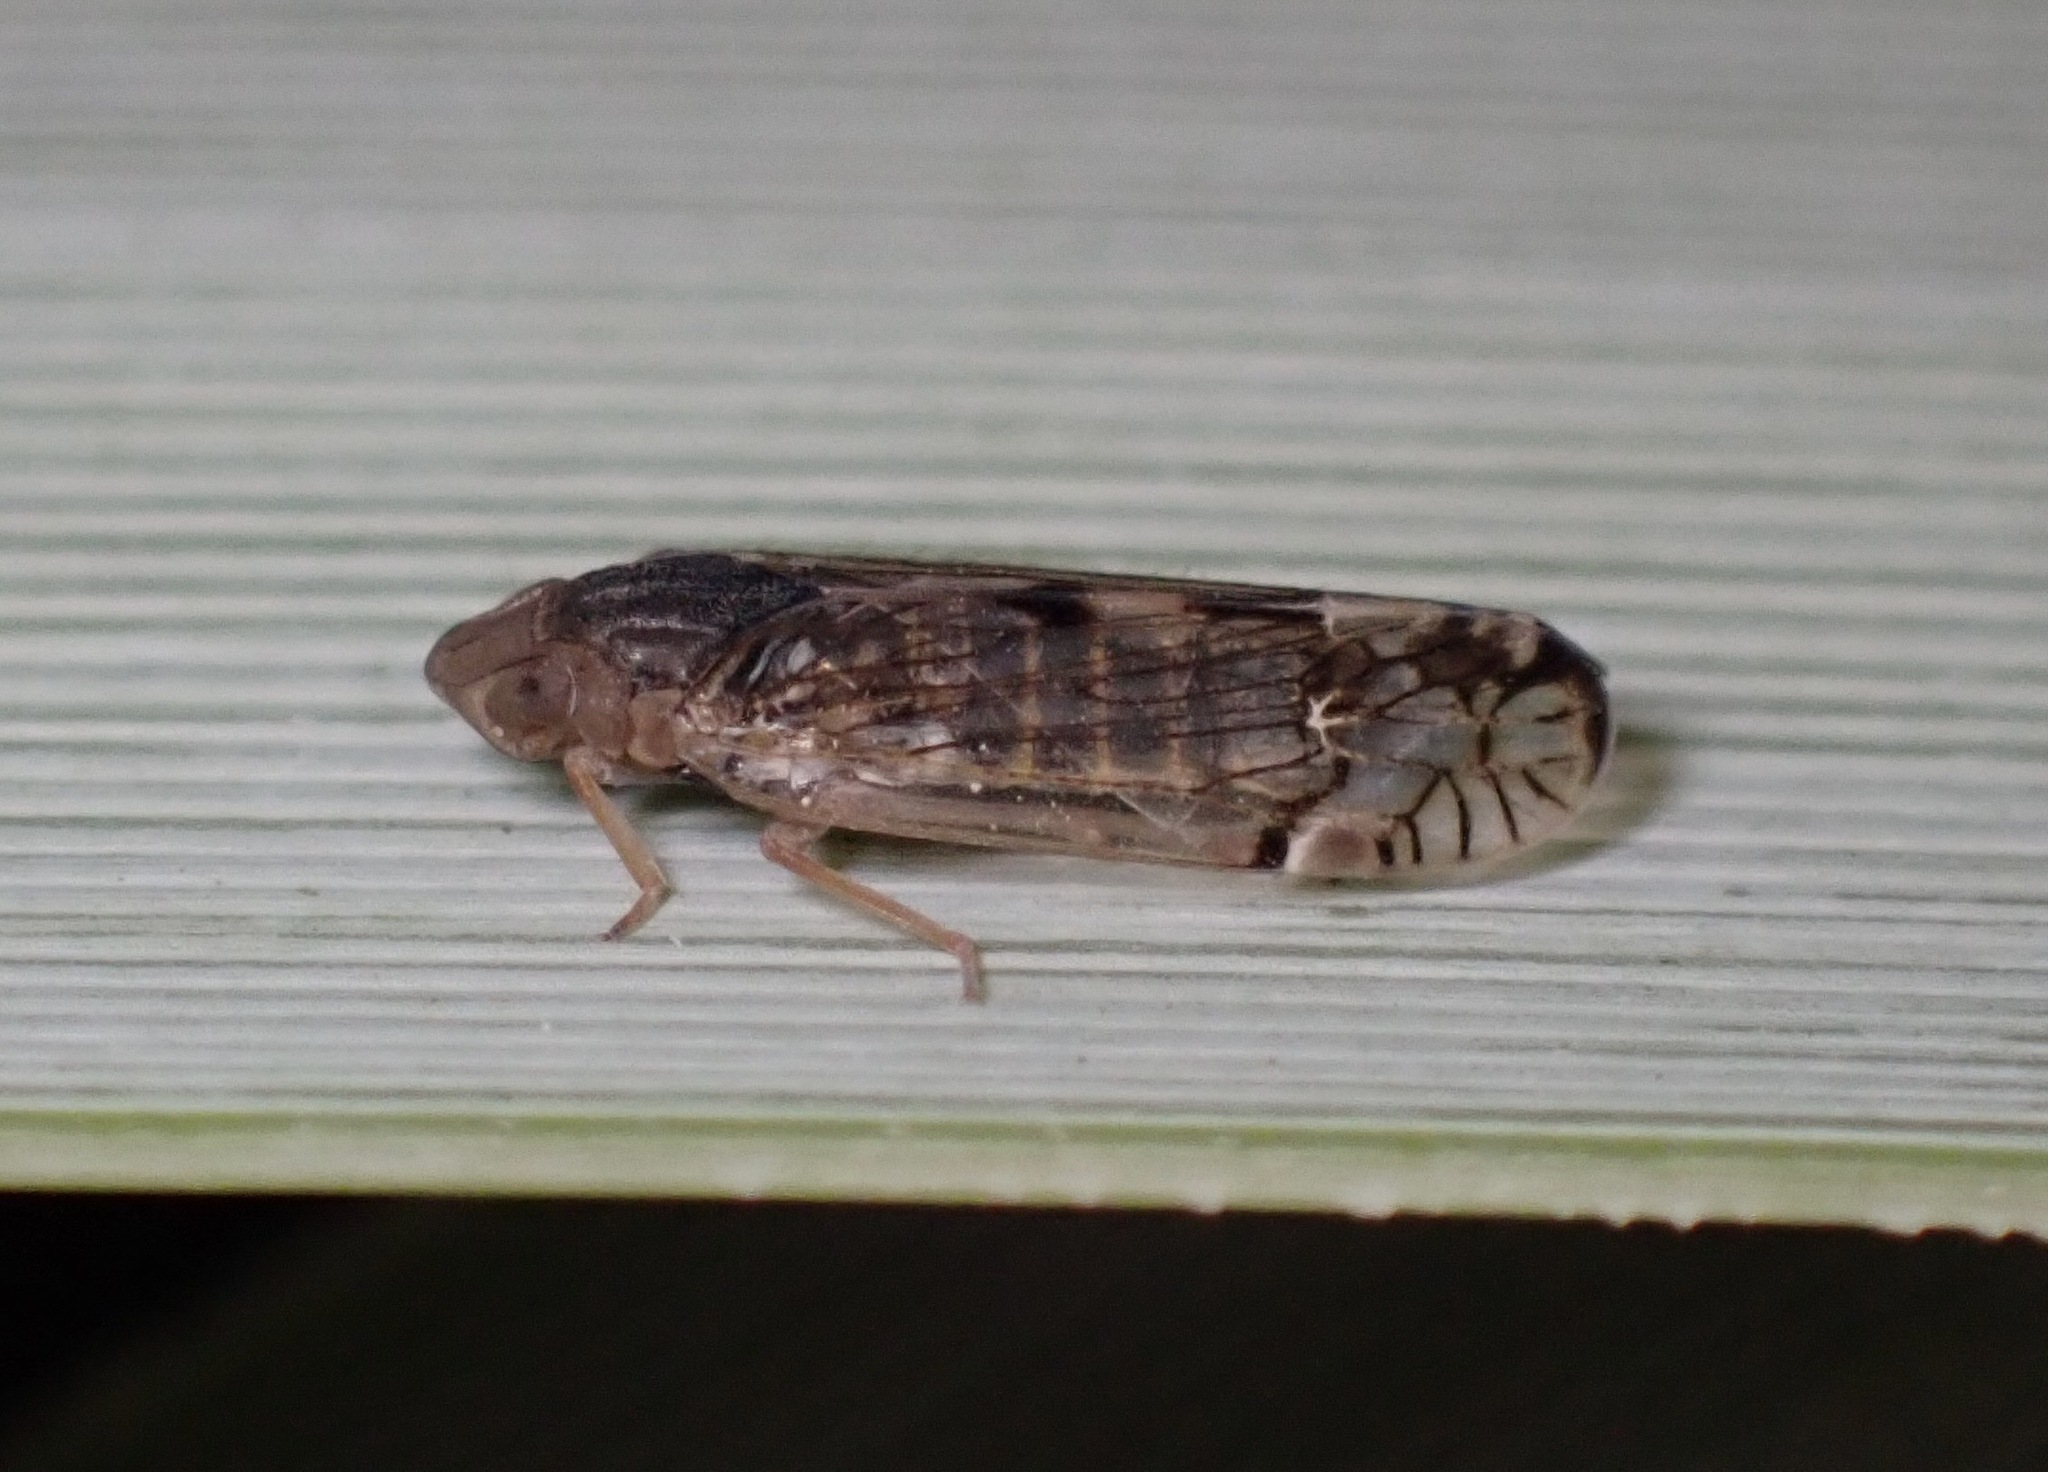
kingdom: Animalia
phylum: Arthropoda
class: Insecta
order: Hemiptera
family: Cixiidae
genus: Platycixius
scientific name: Platycixius calvus
